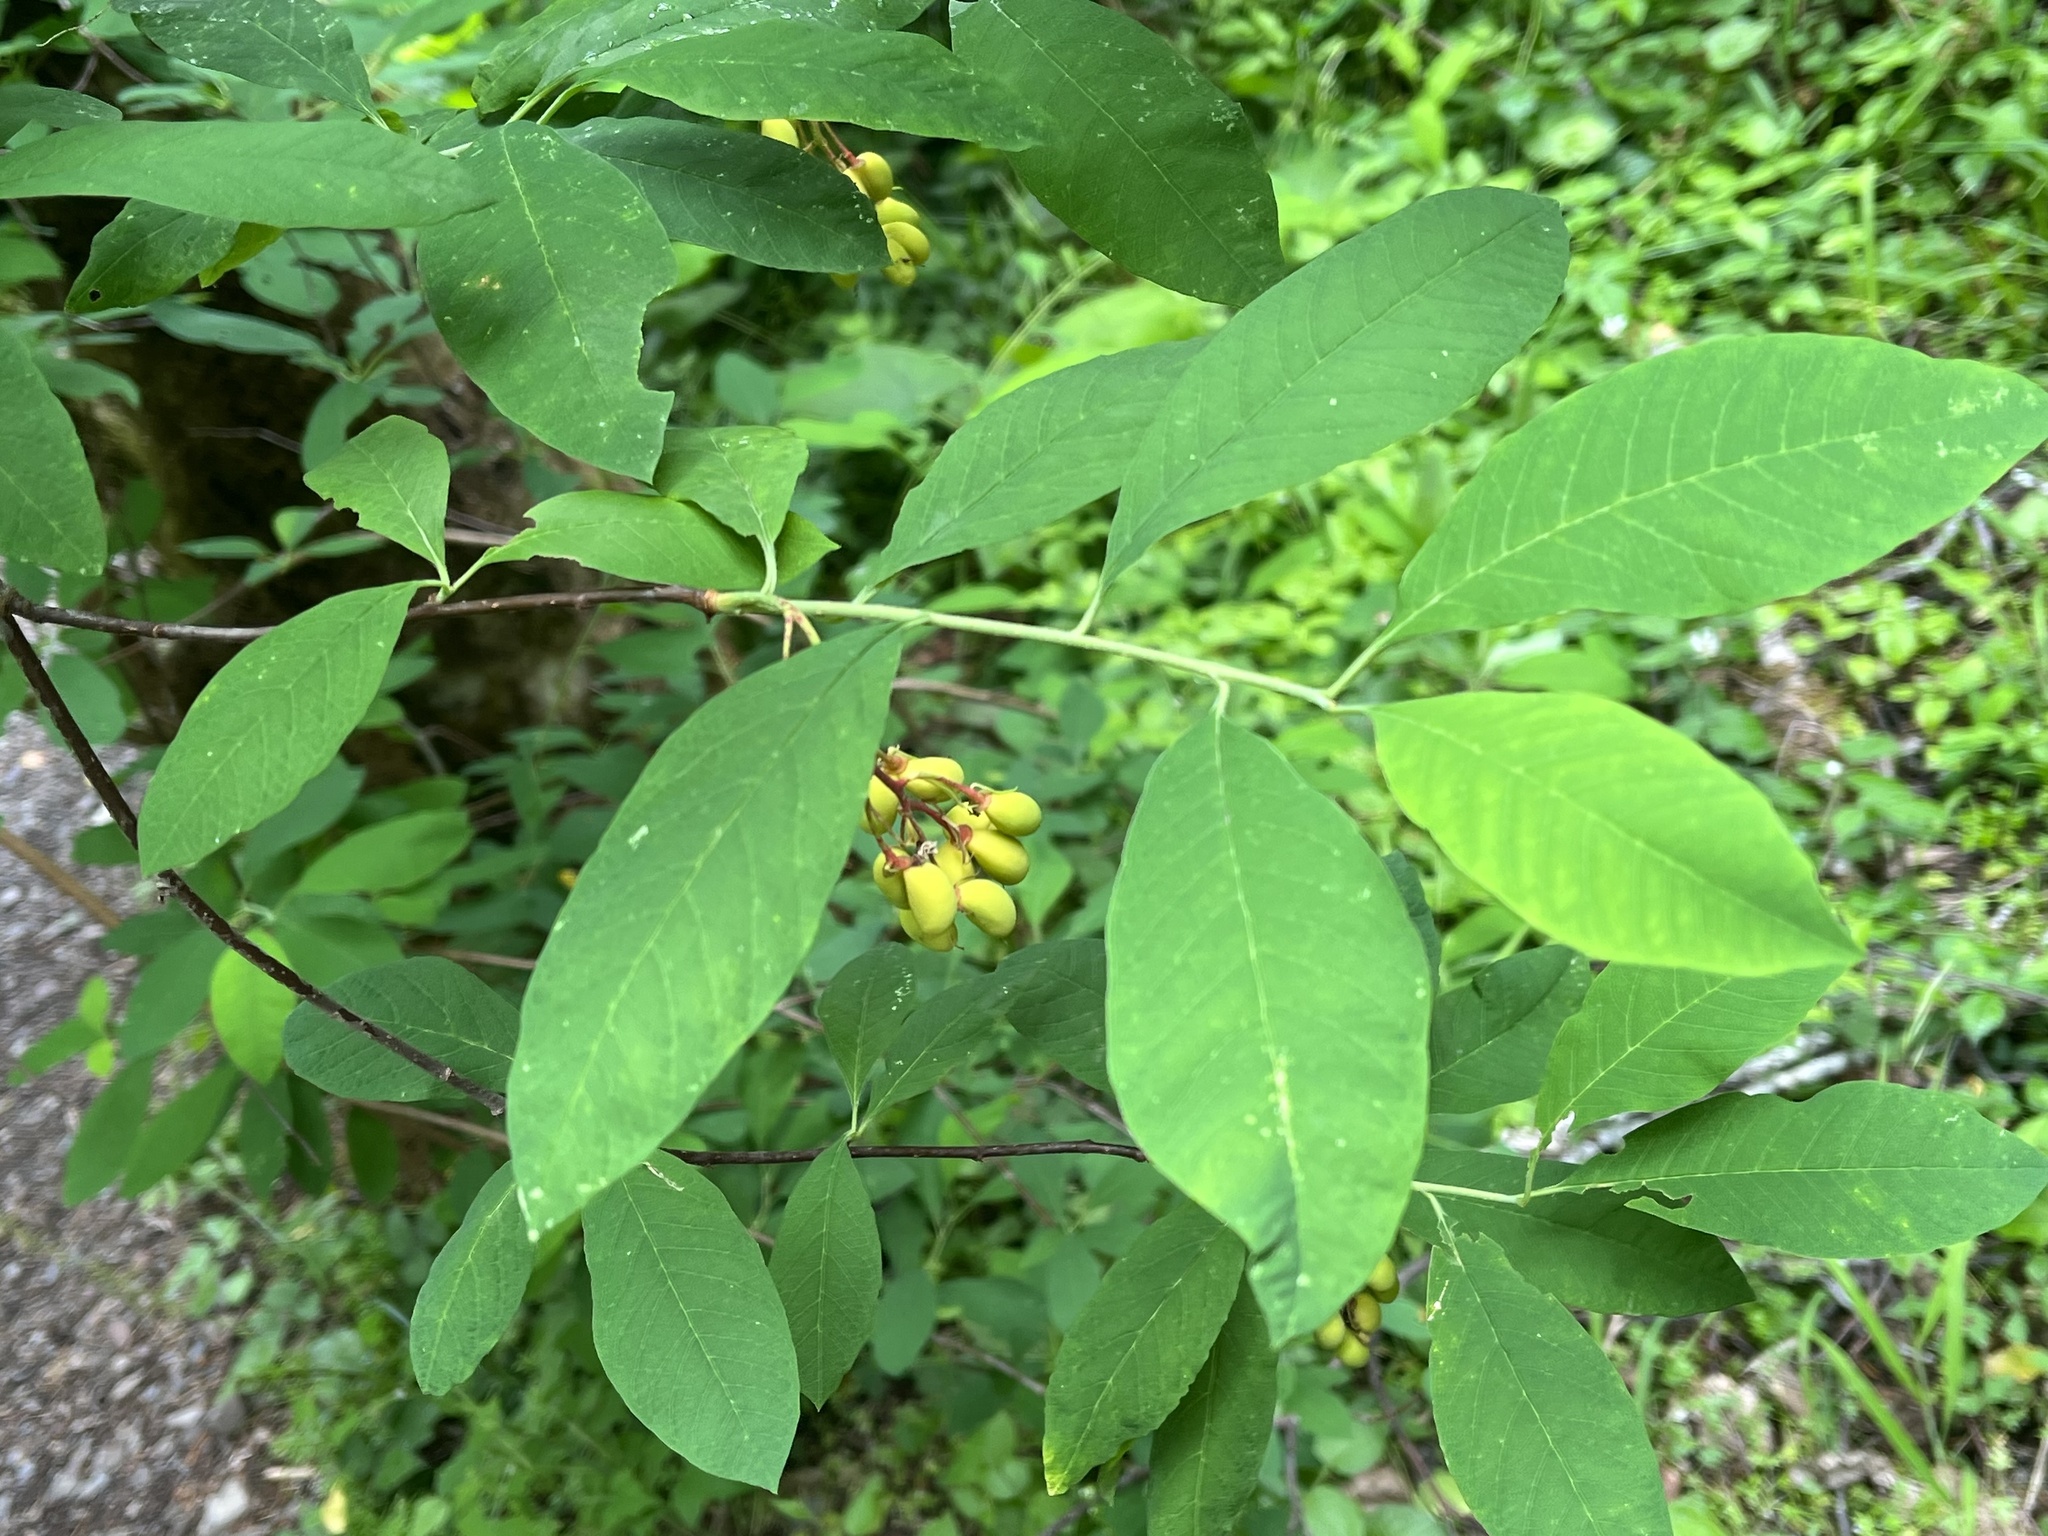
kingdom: Plantae
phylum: Tracheophyta
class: Magnoliopsida
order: Rosales
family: Rosaceae
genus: Oemleria
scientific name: Oemleria cerasiformis
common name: Osoberry
